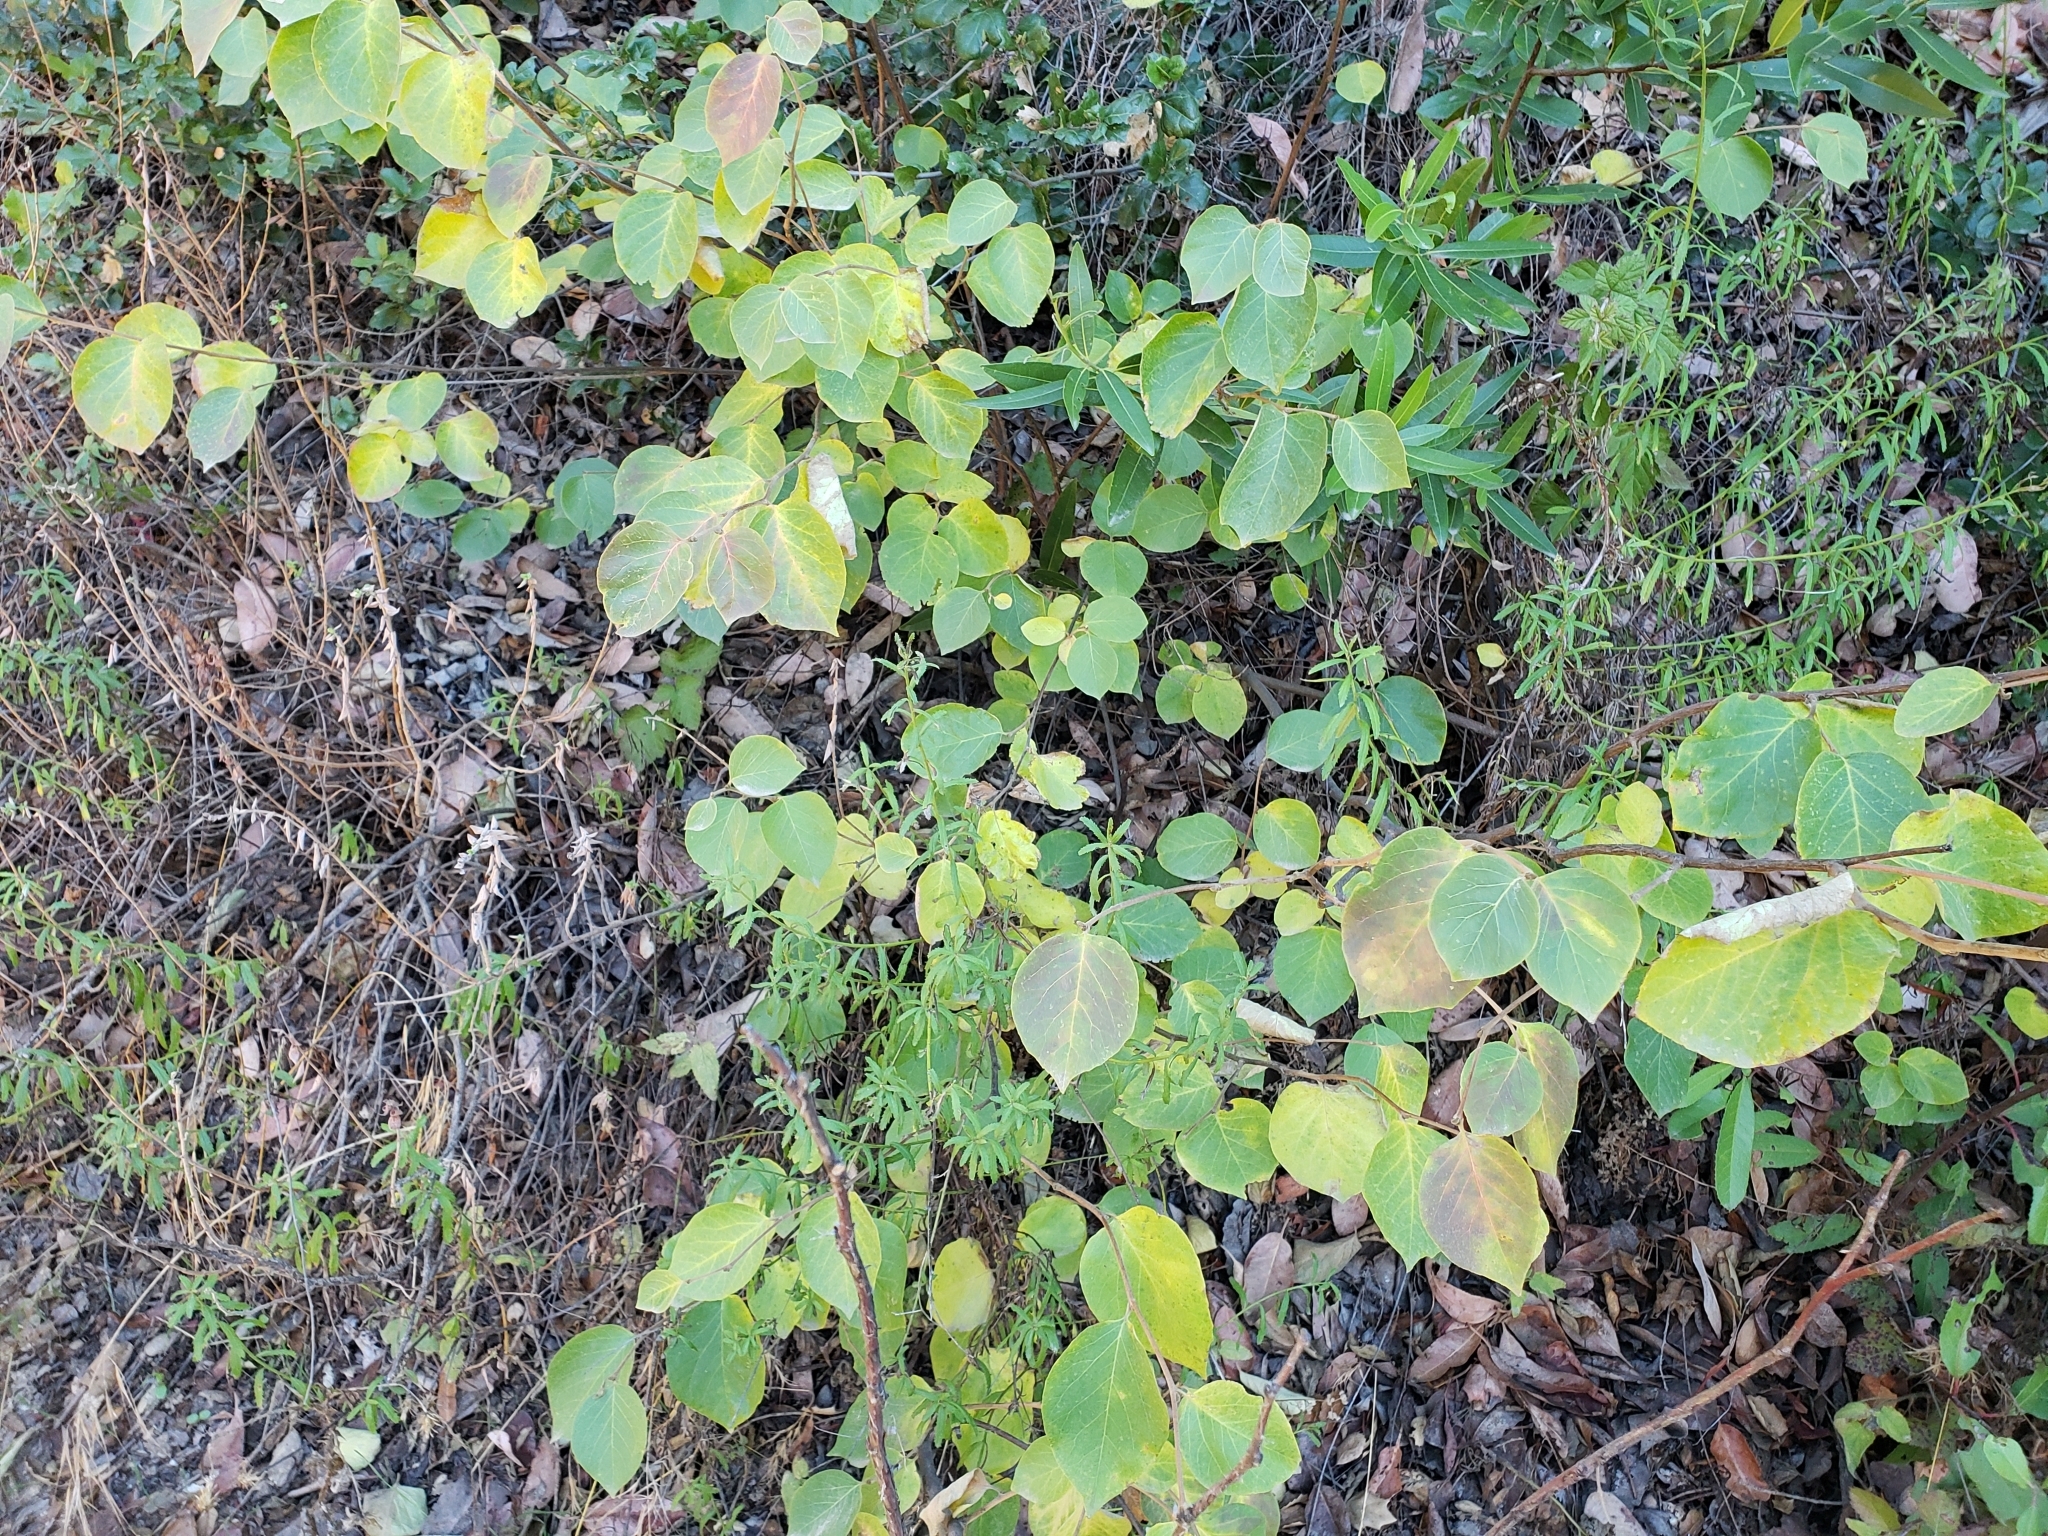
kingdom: Plantae
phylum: Tracheophyta
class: Magnoliopsida
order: Ericales
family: Styracaceae
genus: Styrax
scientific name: Styrax redivivus
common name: California styrax
